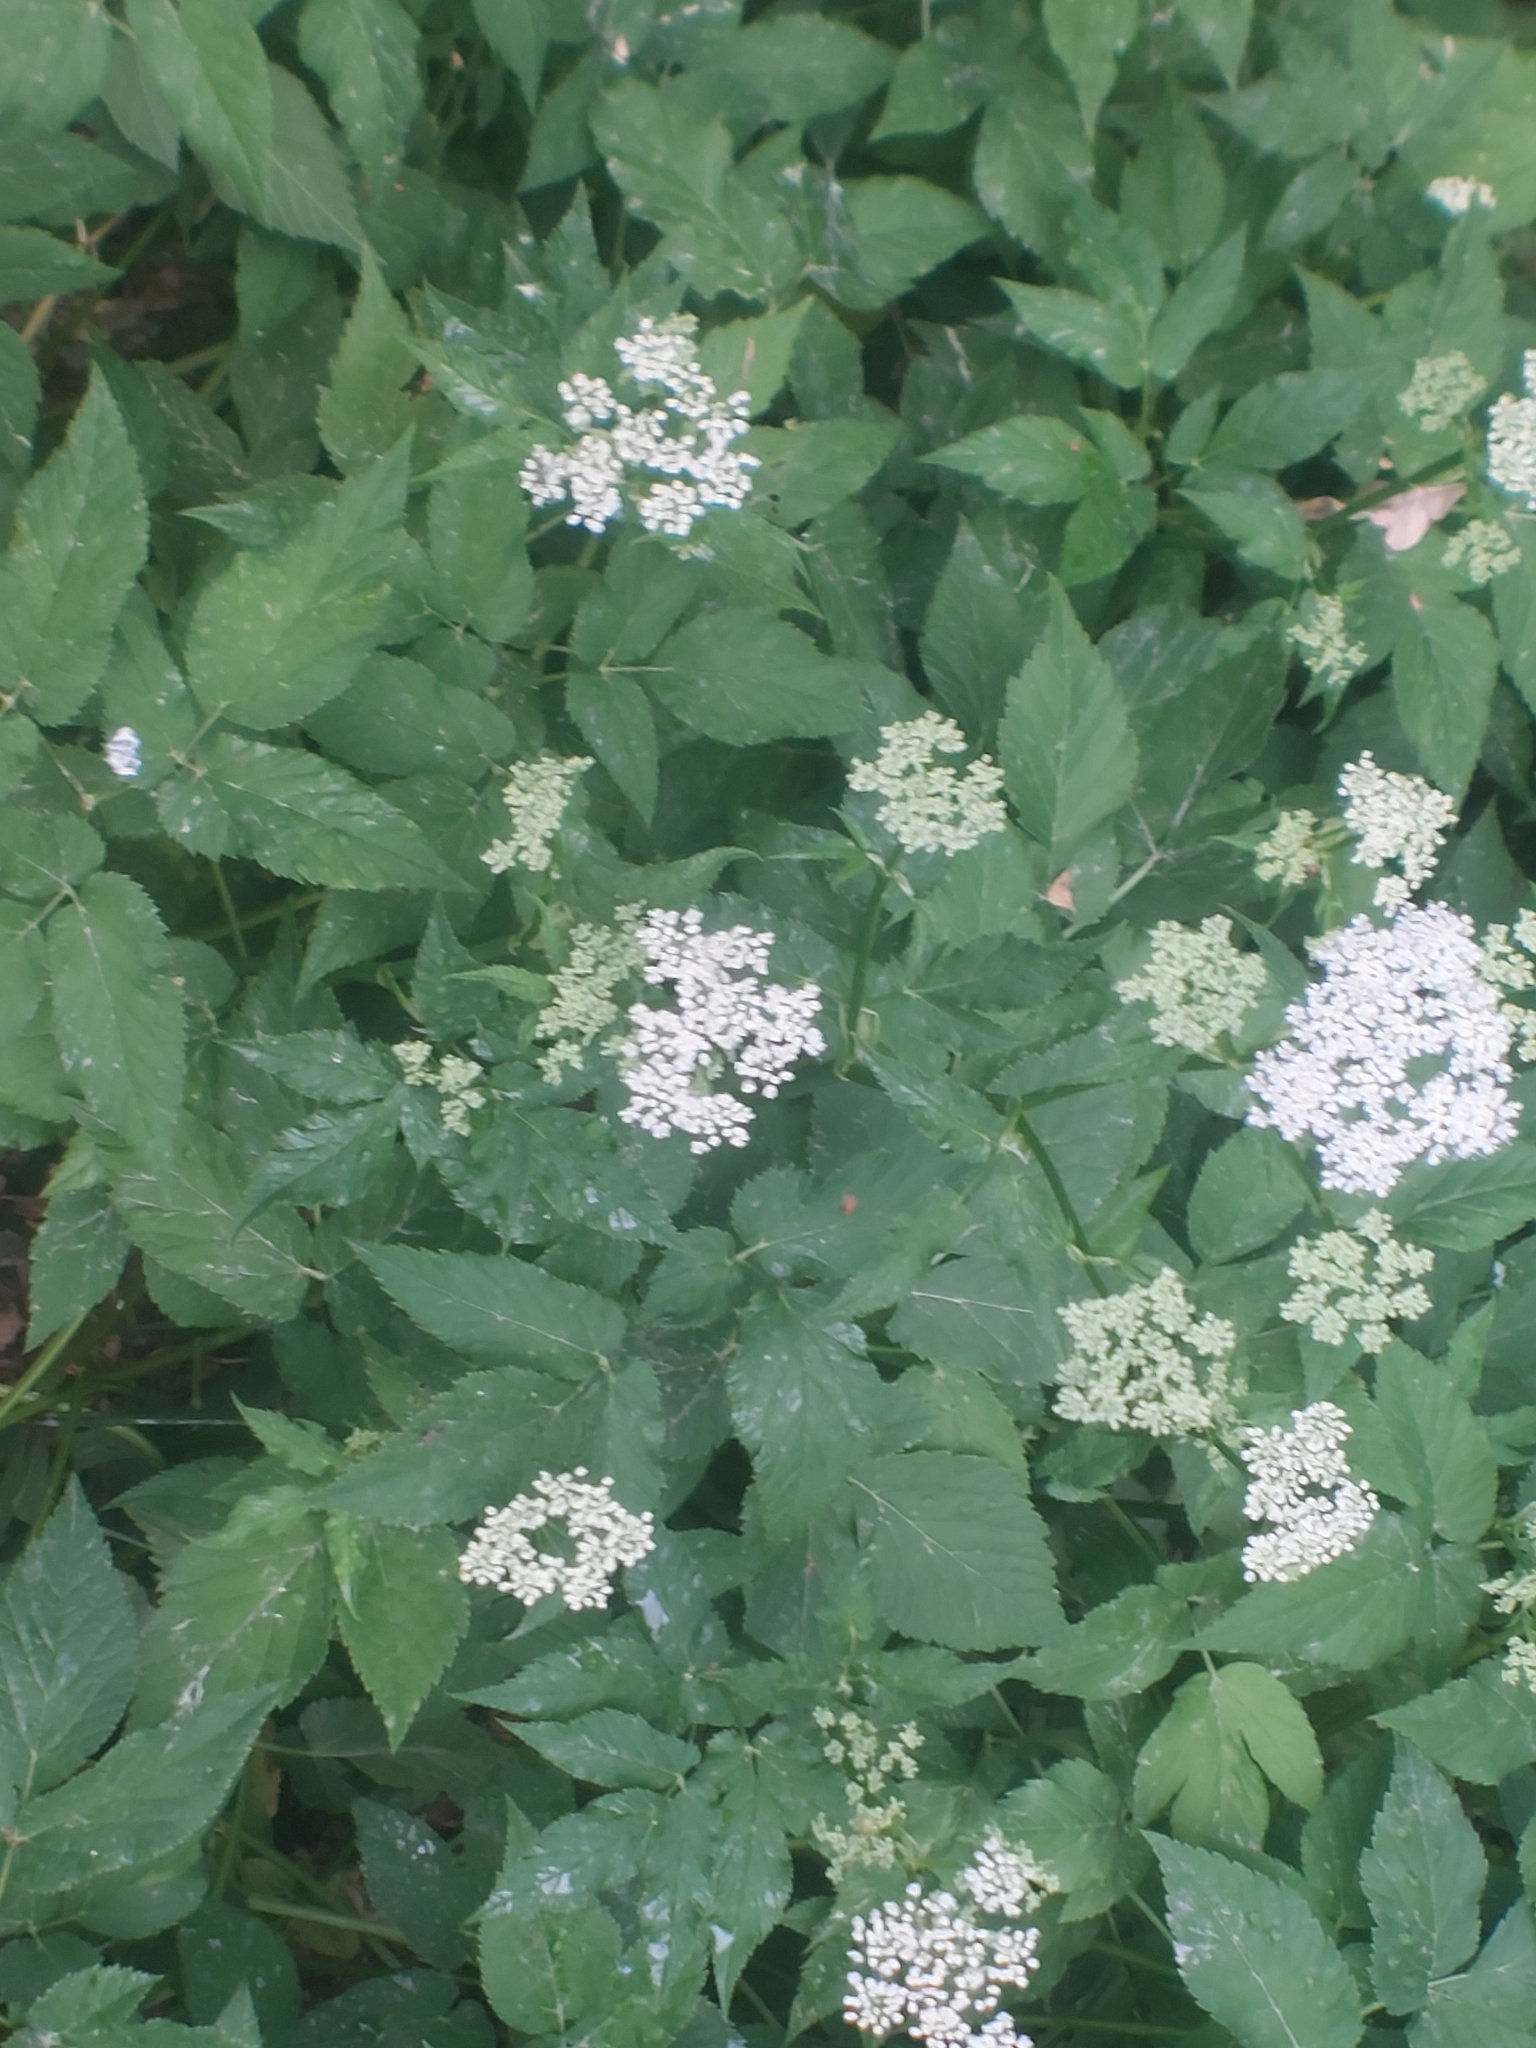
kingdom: Plantae
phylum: Tracheophyta
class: Magnoliopsida
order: Apiales
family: Apiaceae
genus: Aegopodium
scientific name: Aegopodium podagraria
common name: Ground-elder
